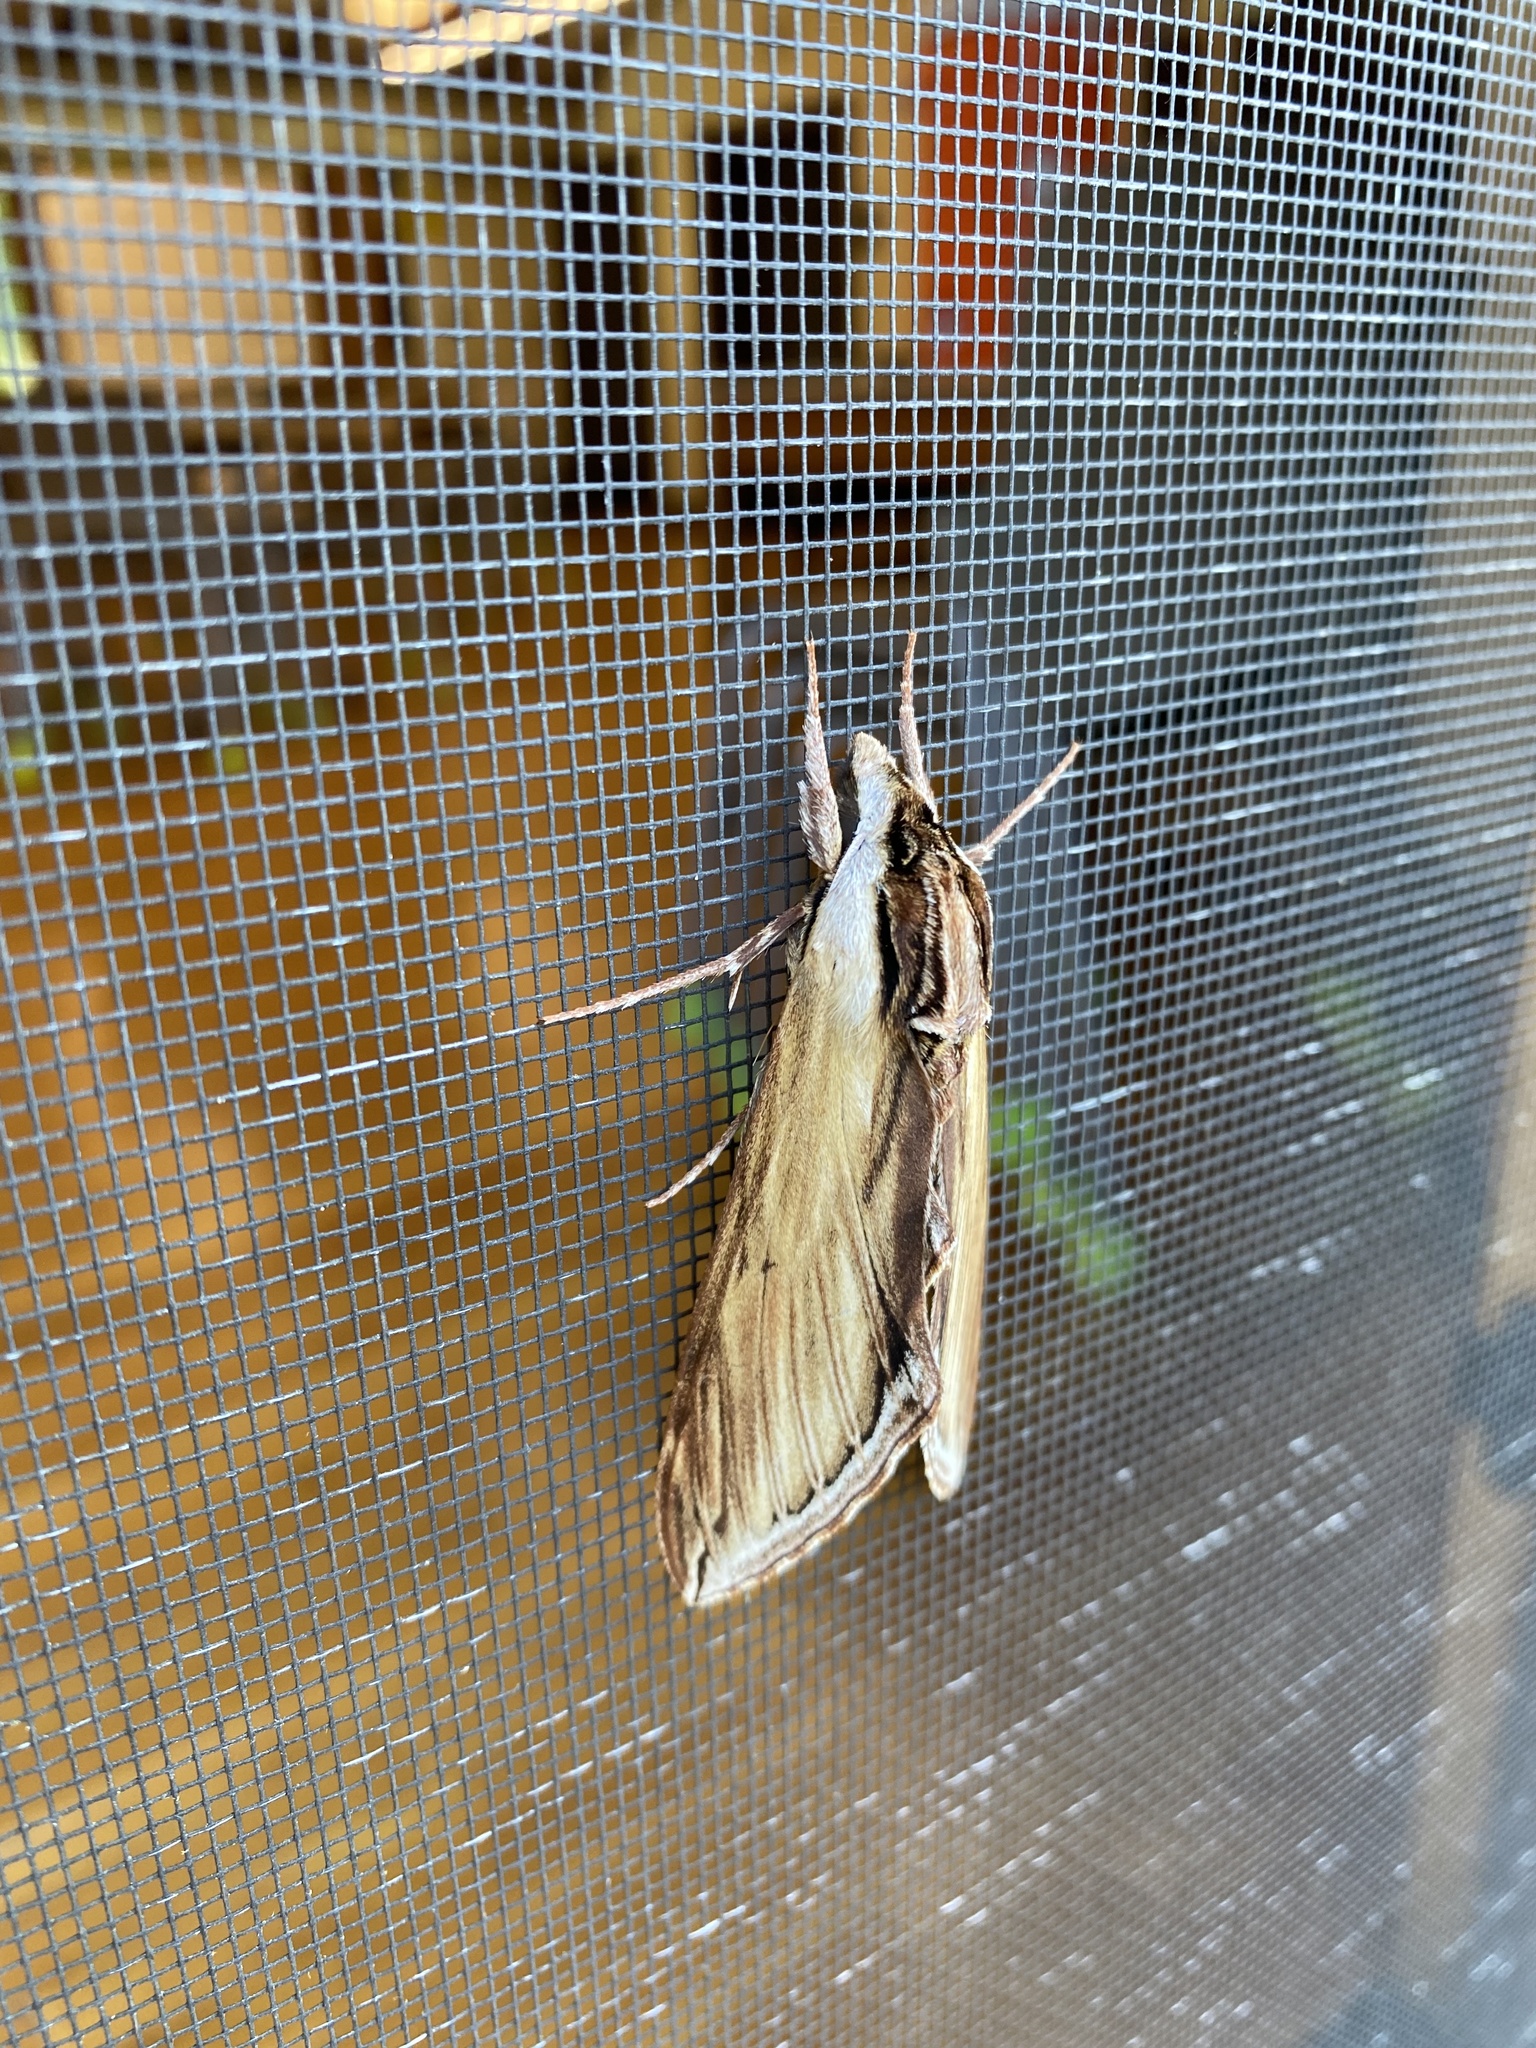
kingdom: Animalia
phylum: Arthropoda
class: Insecta
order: Lepidoptera
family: Sphingidae
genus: Sphinx
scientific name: Sphinx kalmiae
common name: Laurel sphinx
